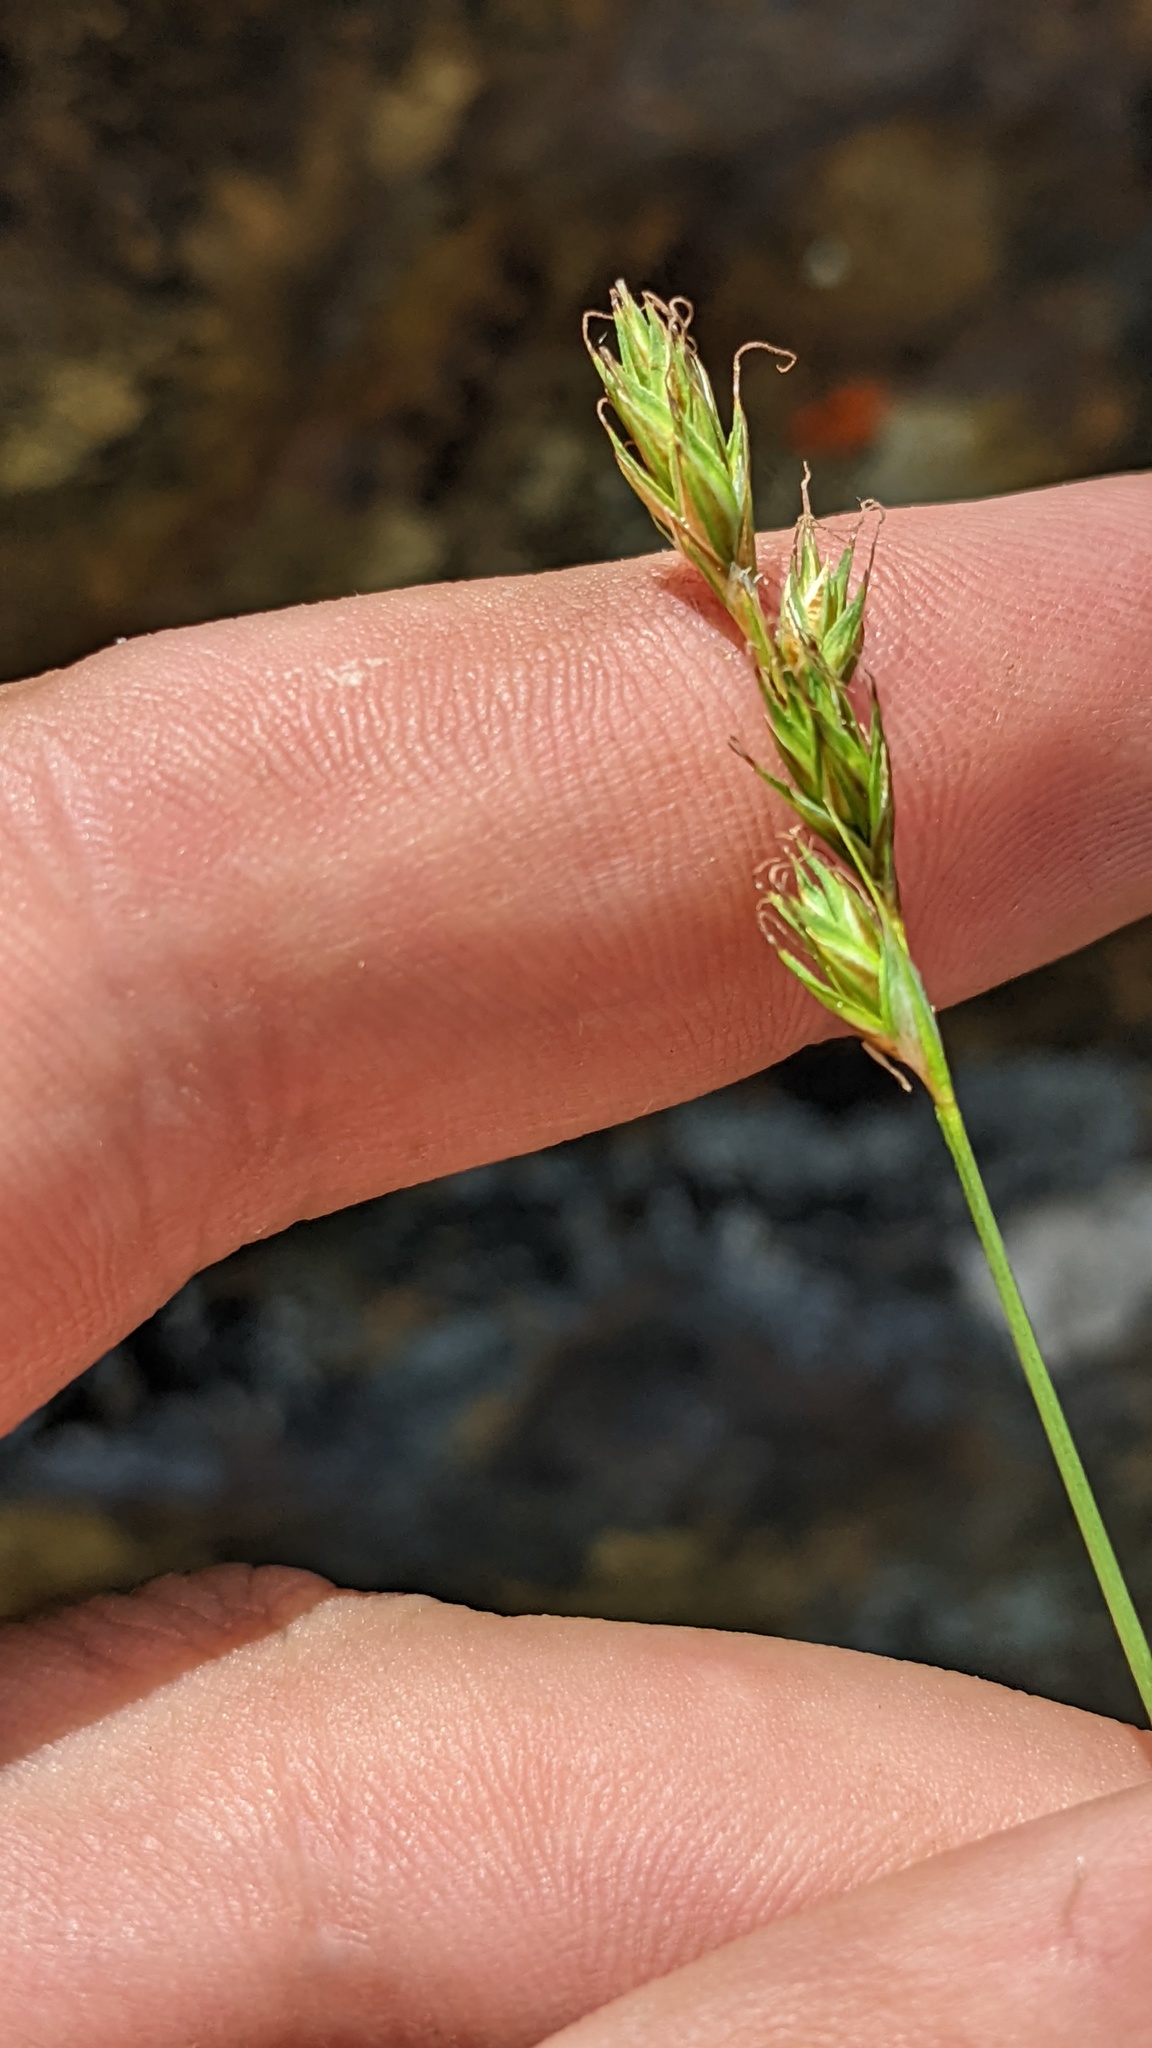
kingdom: Plantae
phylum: Tracheophyta
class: Liliopsida
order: Poales
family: Cyperaceae
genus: Carex
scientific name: Carex petasata
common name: Liddon's sedge
